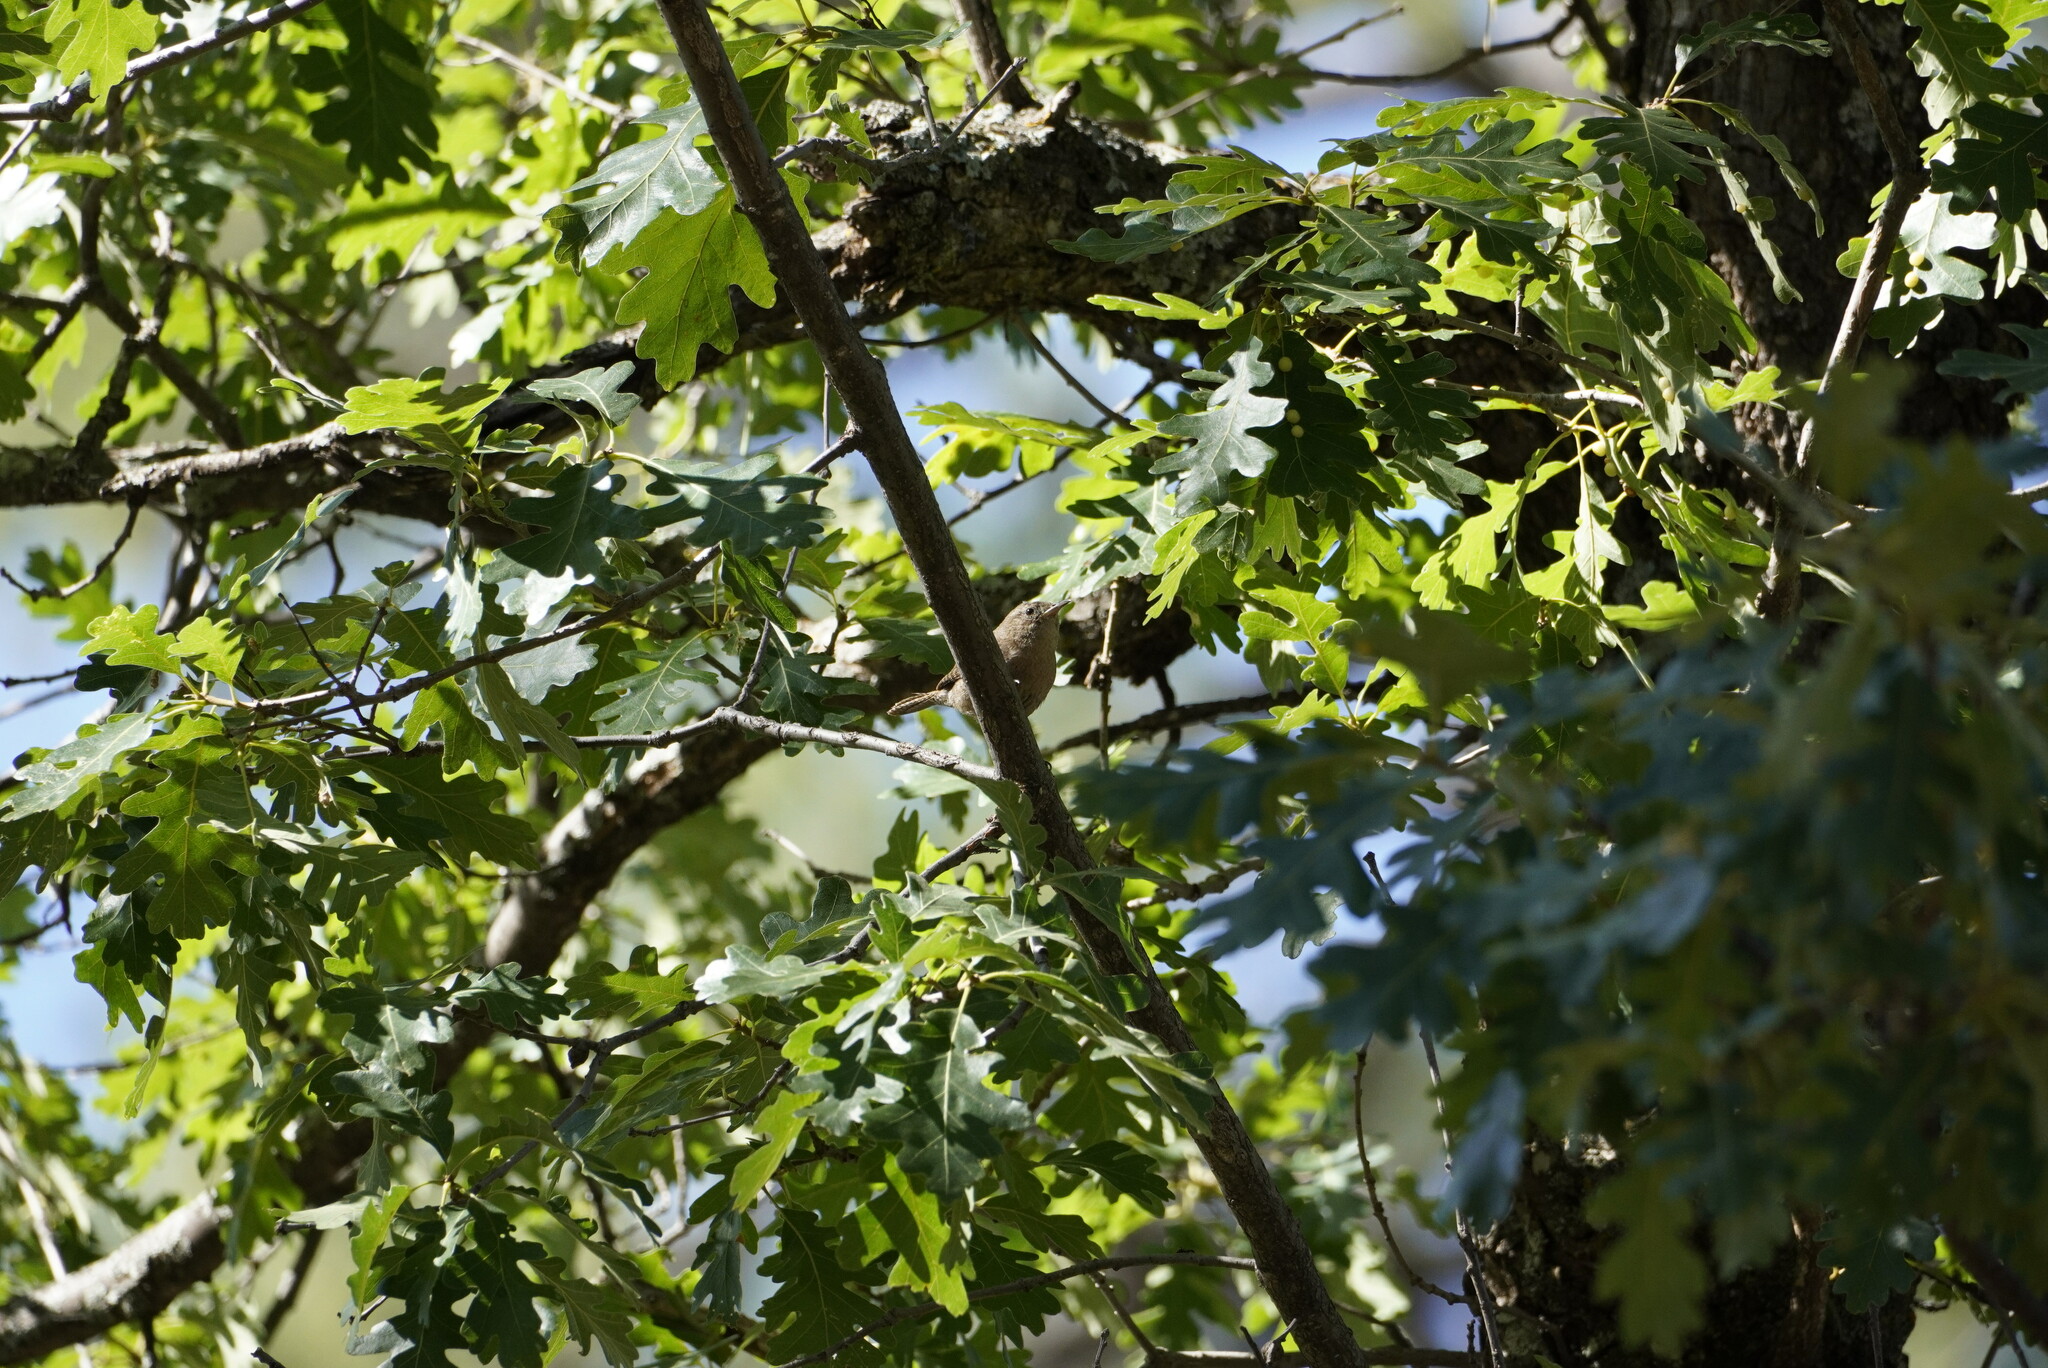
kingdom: Animalia
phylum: Chordata
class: Aves
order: Passeriformes
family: Troglodytidae
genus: Troglodytes
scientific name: Troglodytes aedon
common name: House wren
